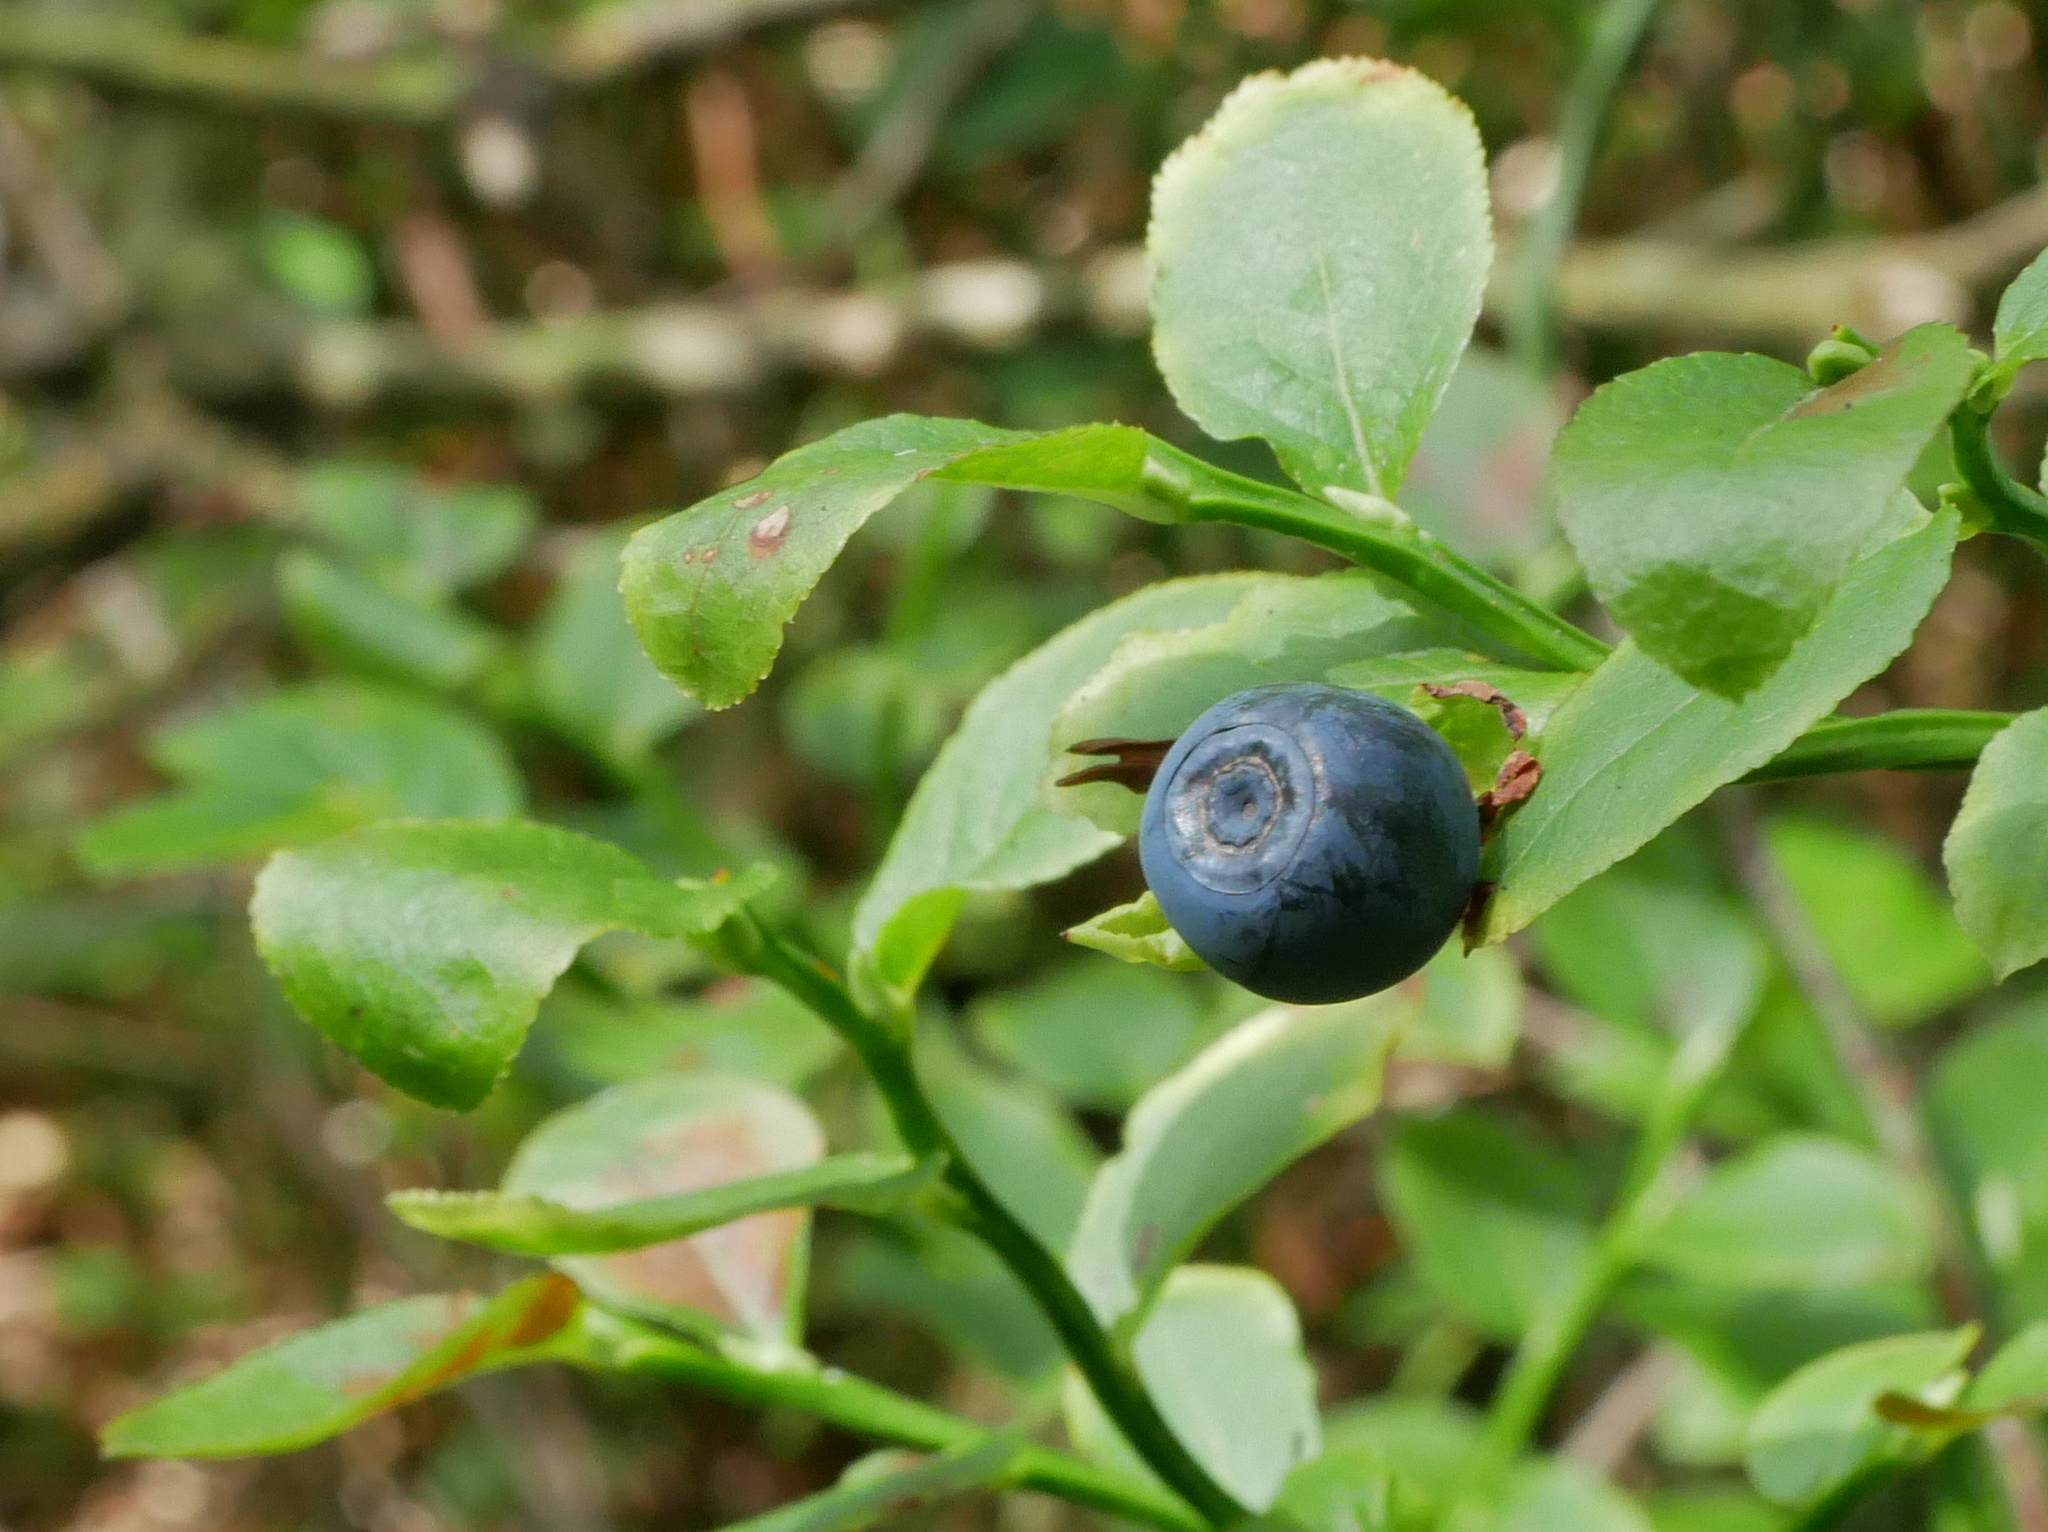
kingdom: Plantae
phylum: Tracheophyta
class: Magnoliopsida
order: Ericales
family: Ericaceae
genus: Vaccinium
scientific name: Vaccinium myrtillus
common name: Bilberry
